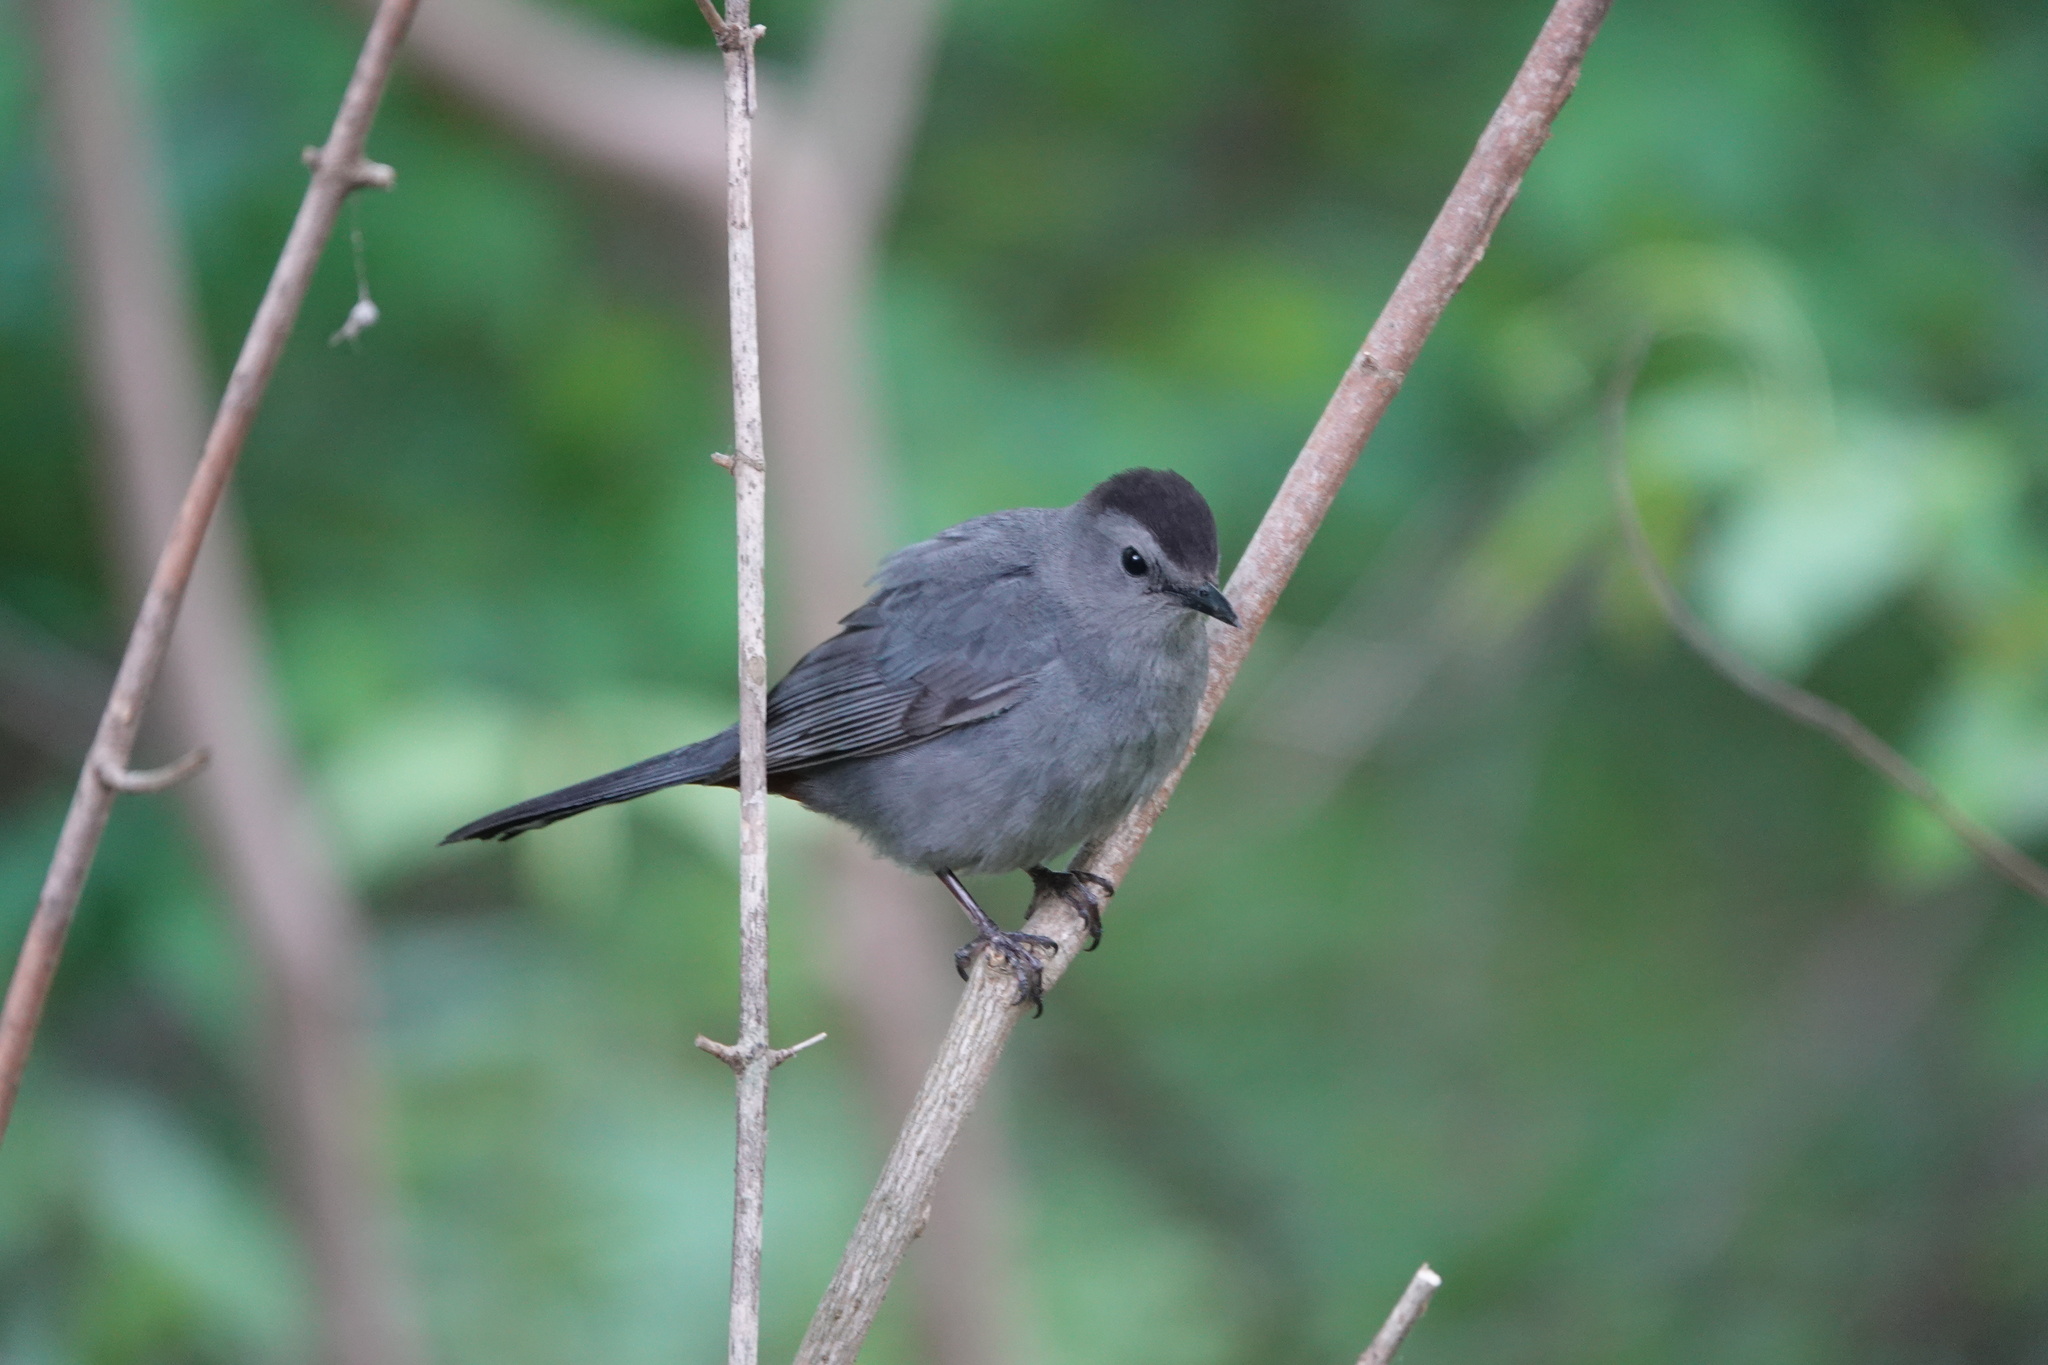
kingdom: Animalia
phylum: Chordata
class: Aves
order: Passeriformes
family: Mimidae
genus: Dumetella
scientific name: Dumetella carolinensis
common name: Gray catbird
